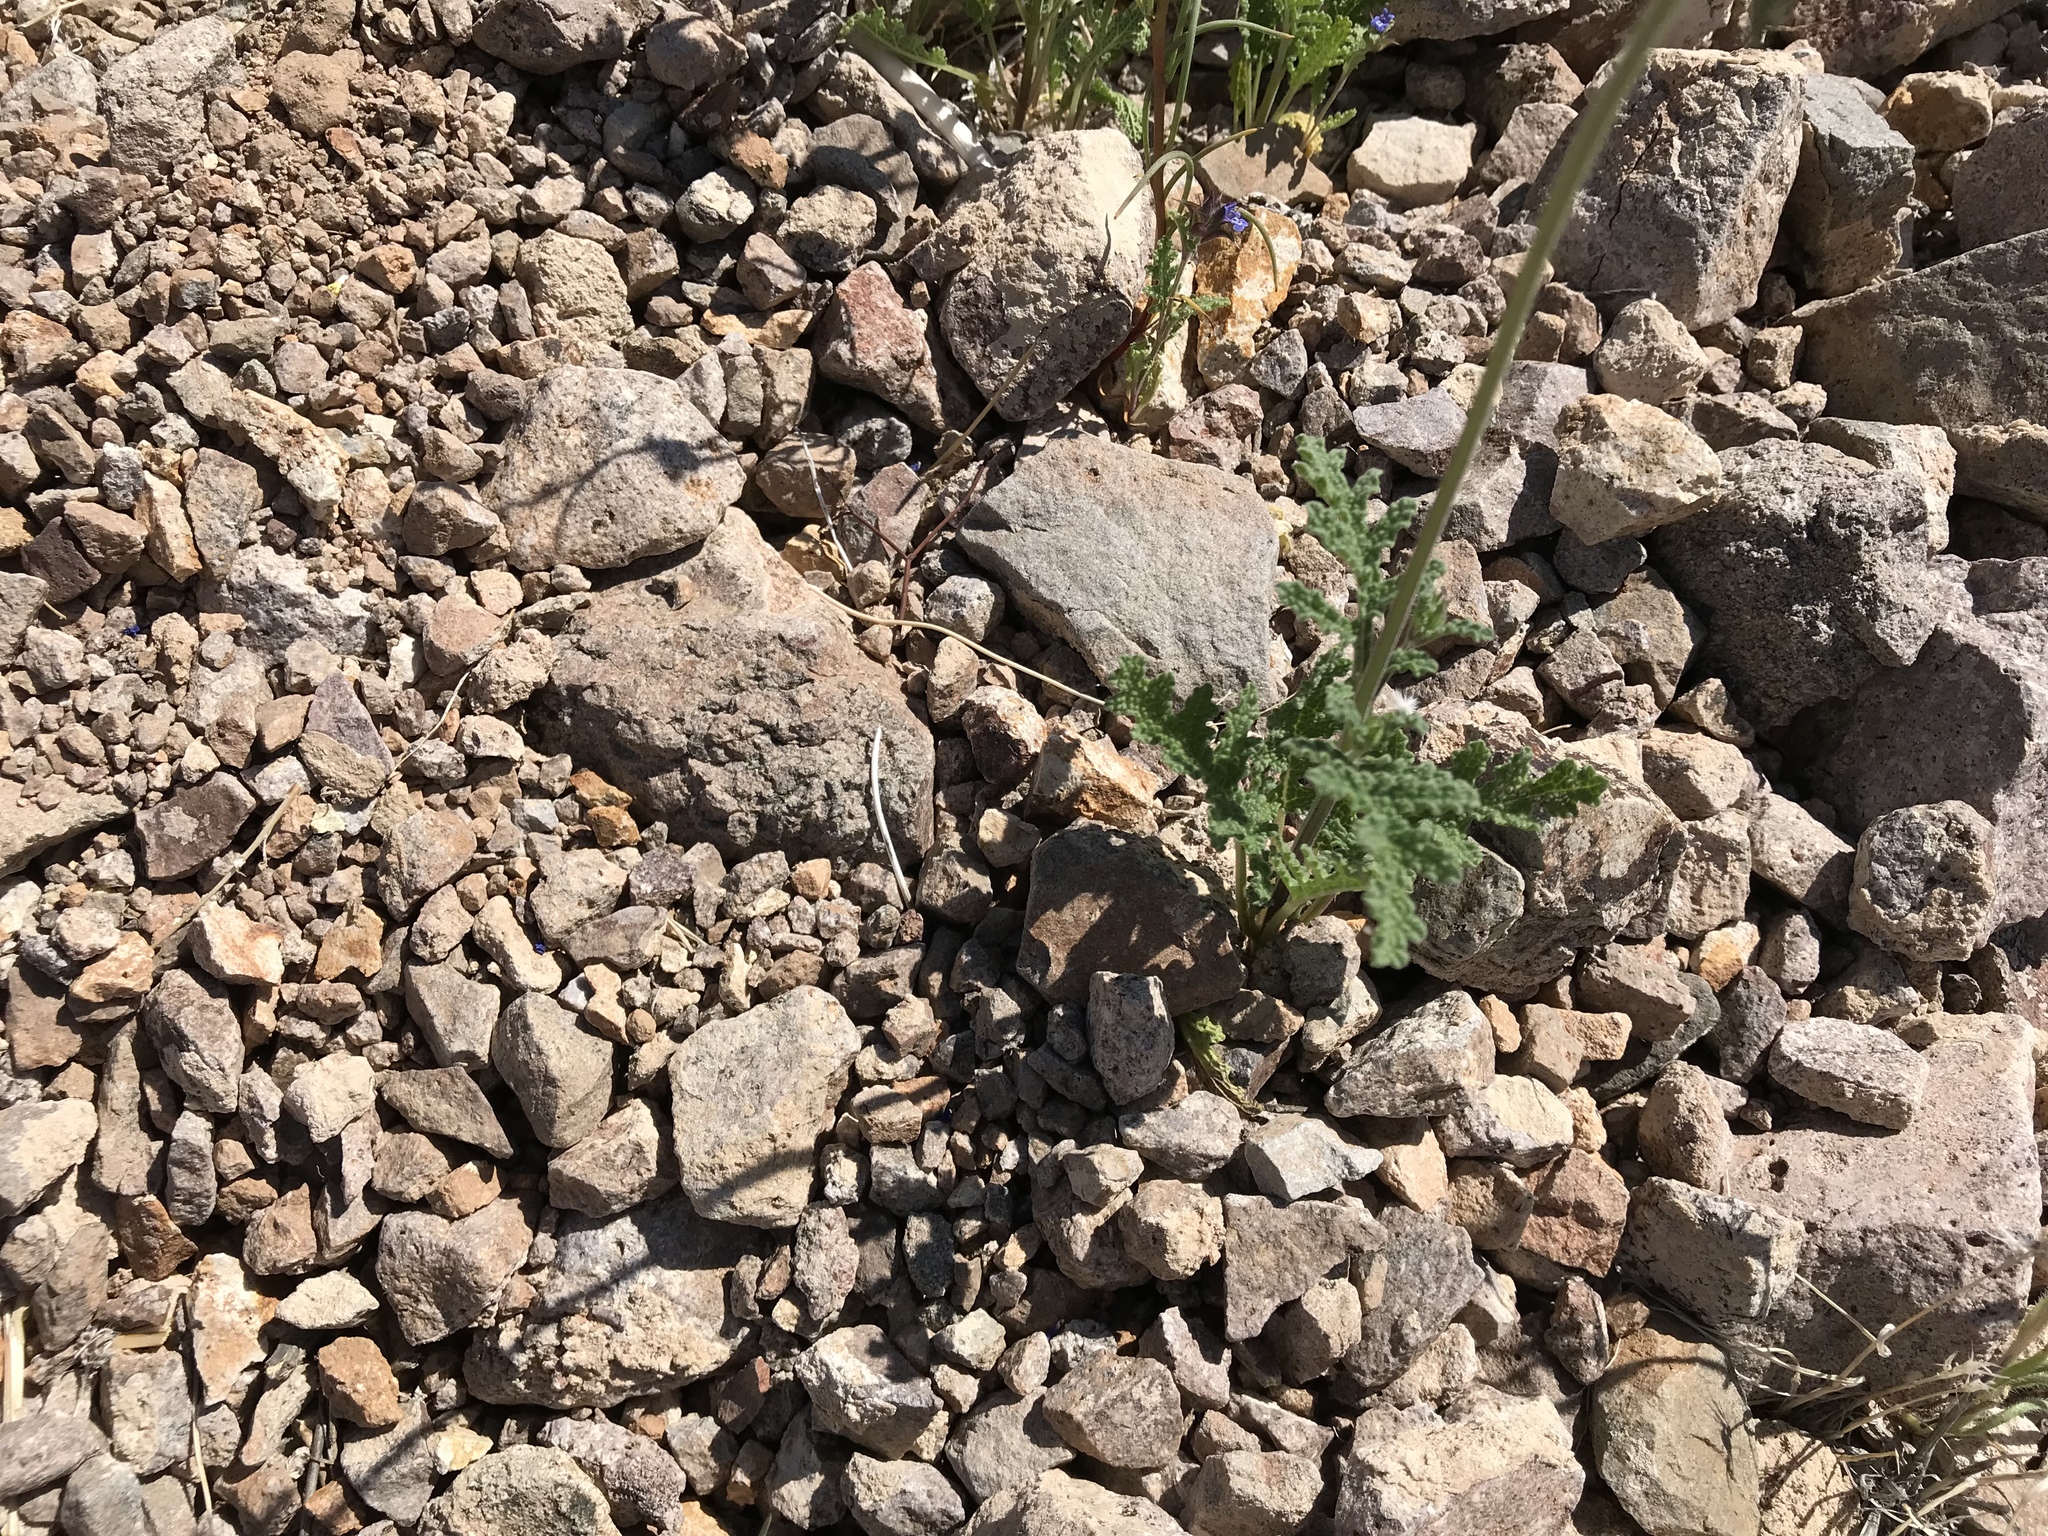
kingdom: Plantae
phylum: Tracheophyta
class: Magnoliopsida
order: Lamiales
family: Lamiaceae
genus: Salvia
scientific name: Salvia columbariae
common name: Chia
